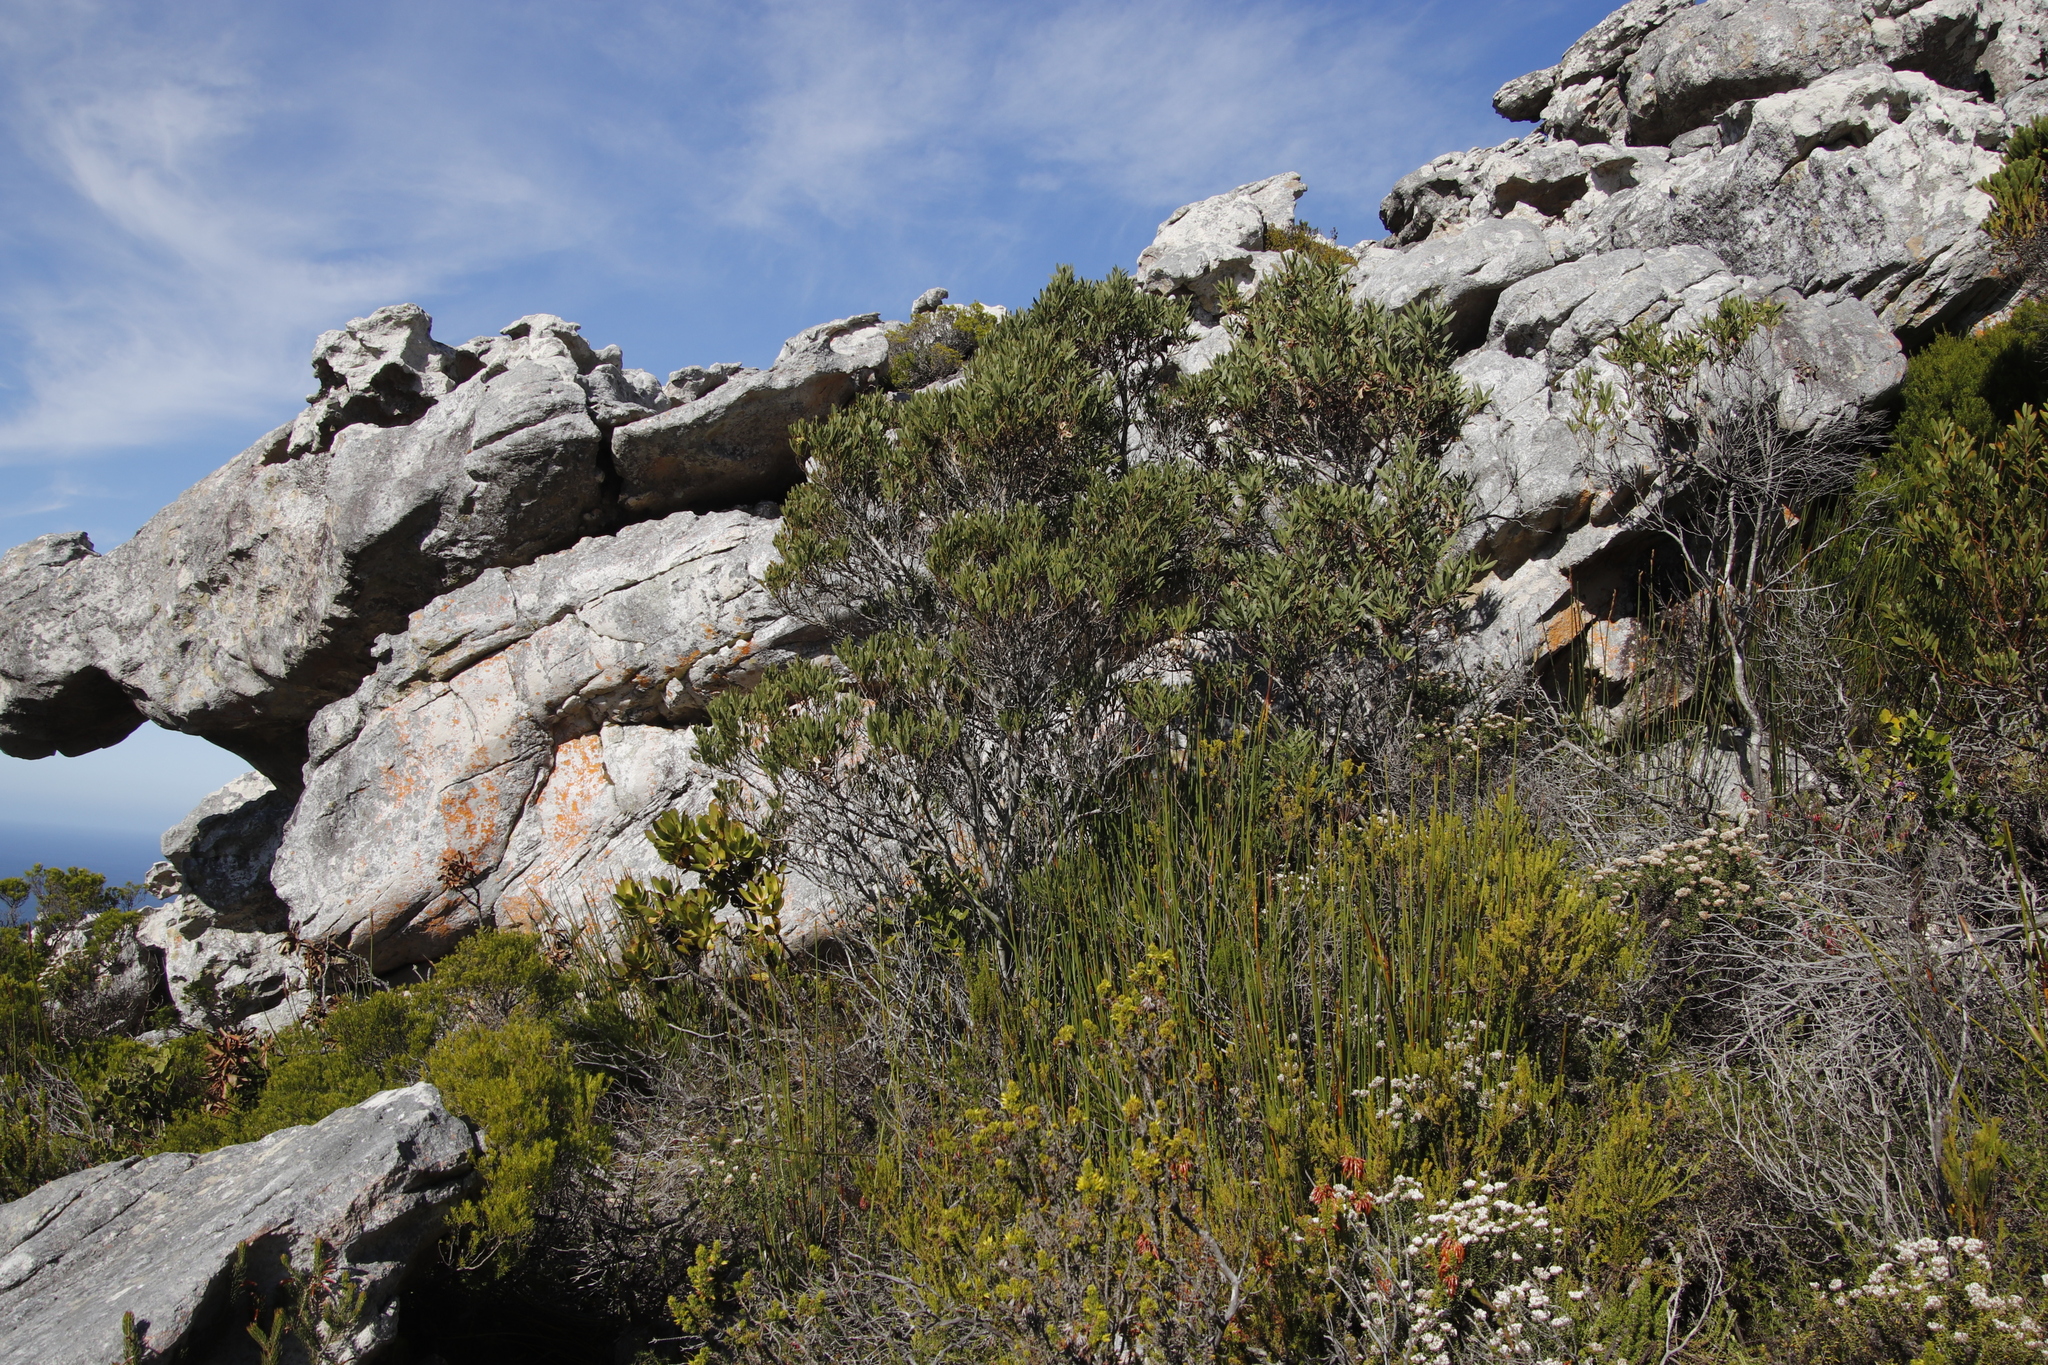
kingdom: Plantae
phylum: Tracheophyta
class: Magnoliopsida
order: Fabales
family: Fabaceae
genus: Acacia
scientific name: Acacia cyclops
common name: Coastal wattle
